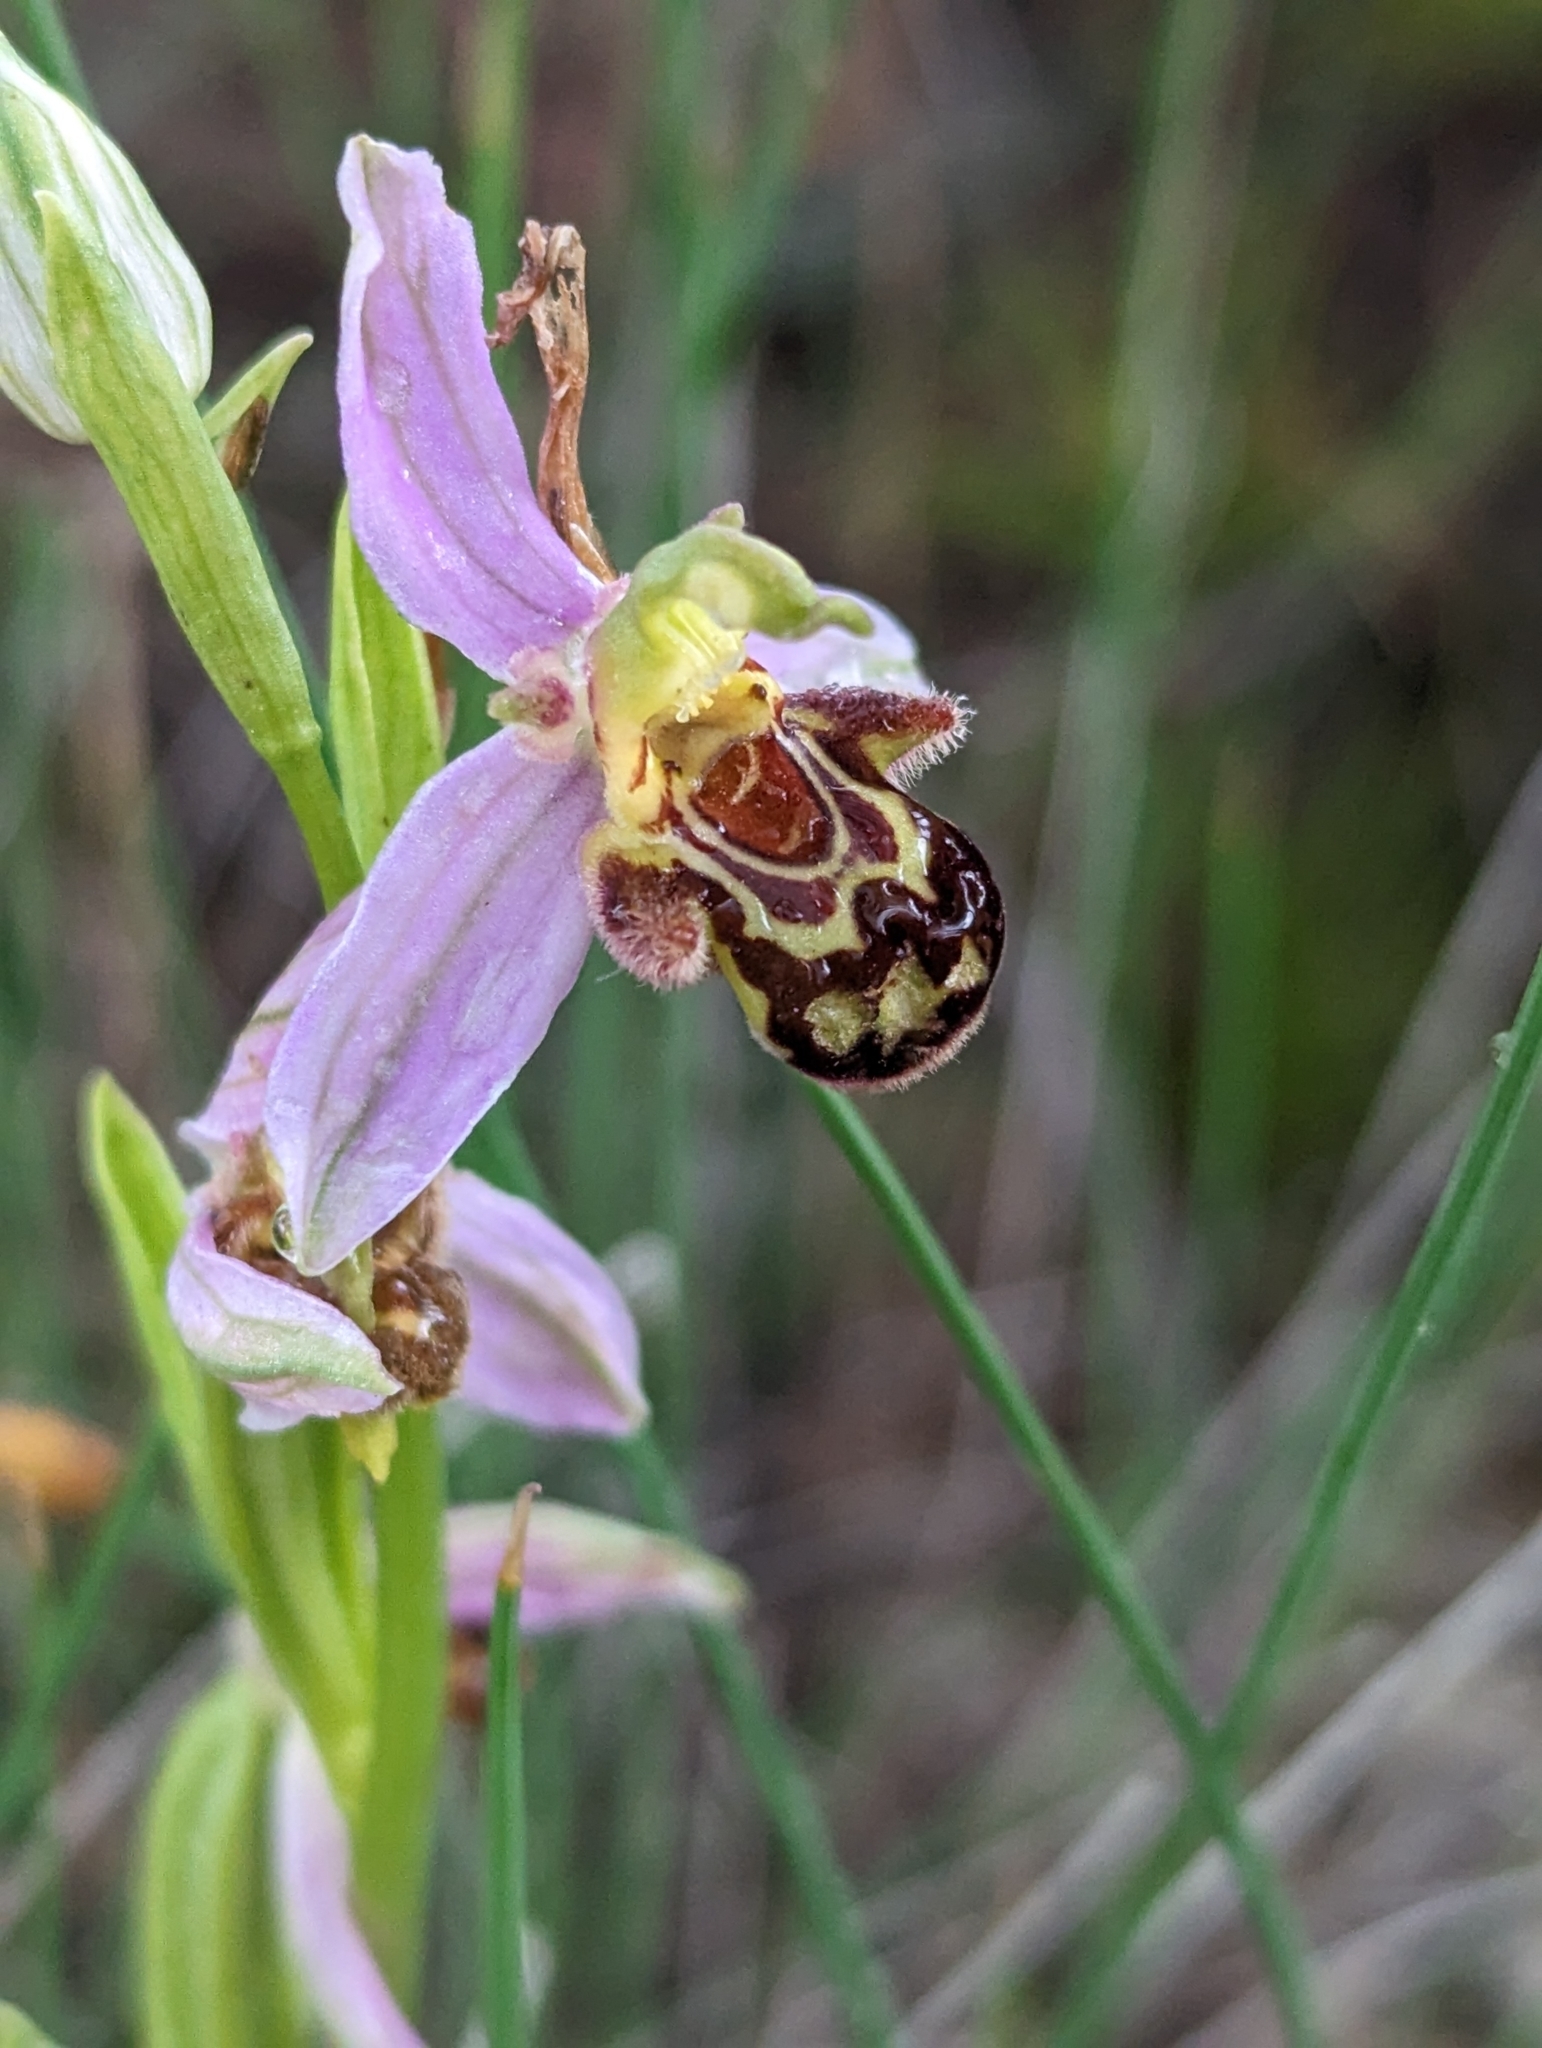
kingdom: Plantae
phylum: Tracheophyta
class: Liliopsida
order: Asparagales
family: Orchidaceae
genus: Ophrys
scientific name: Ophrys apifera
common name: Bee orchid
